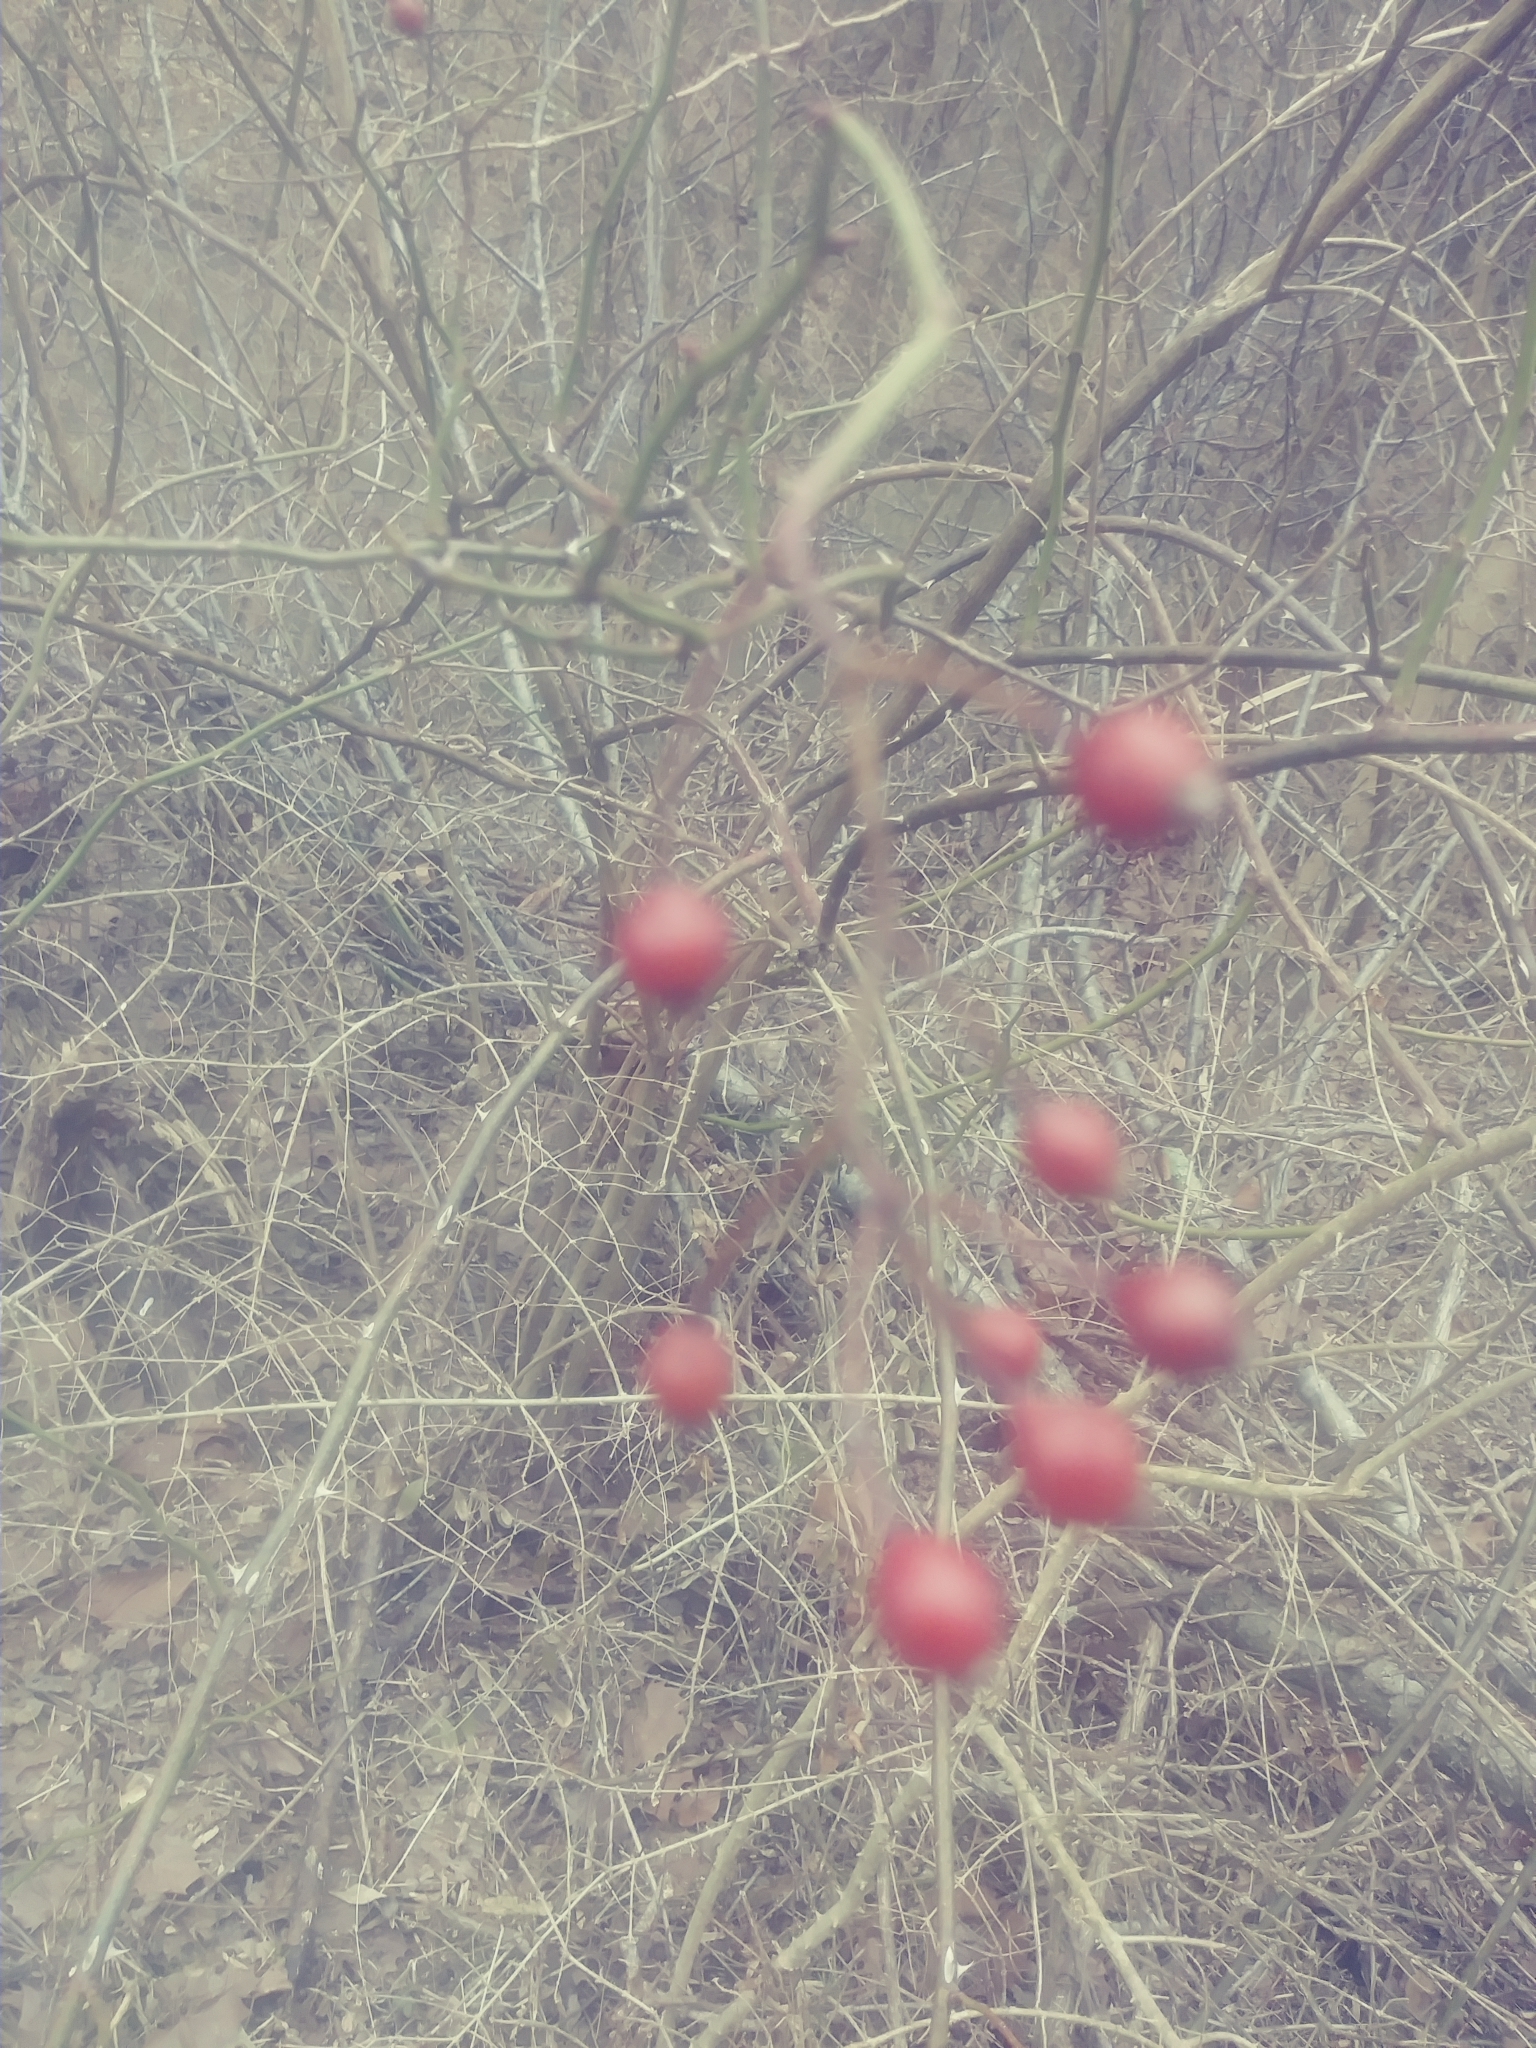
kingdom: Plantae
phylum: Tracheophyta
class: Magnoliopsida
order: Rosales
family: Rosaceae
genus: Rosa
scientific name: Rosa multiflora
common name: Multiflora rose
